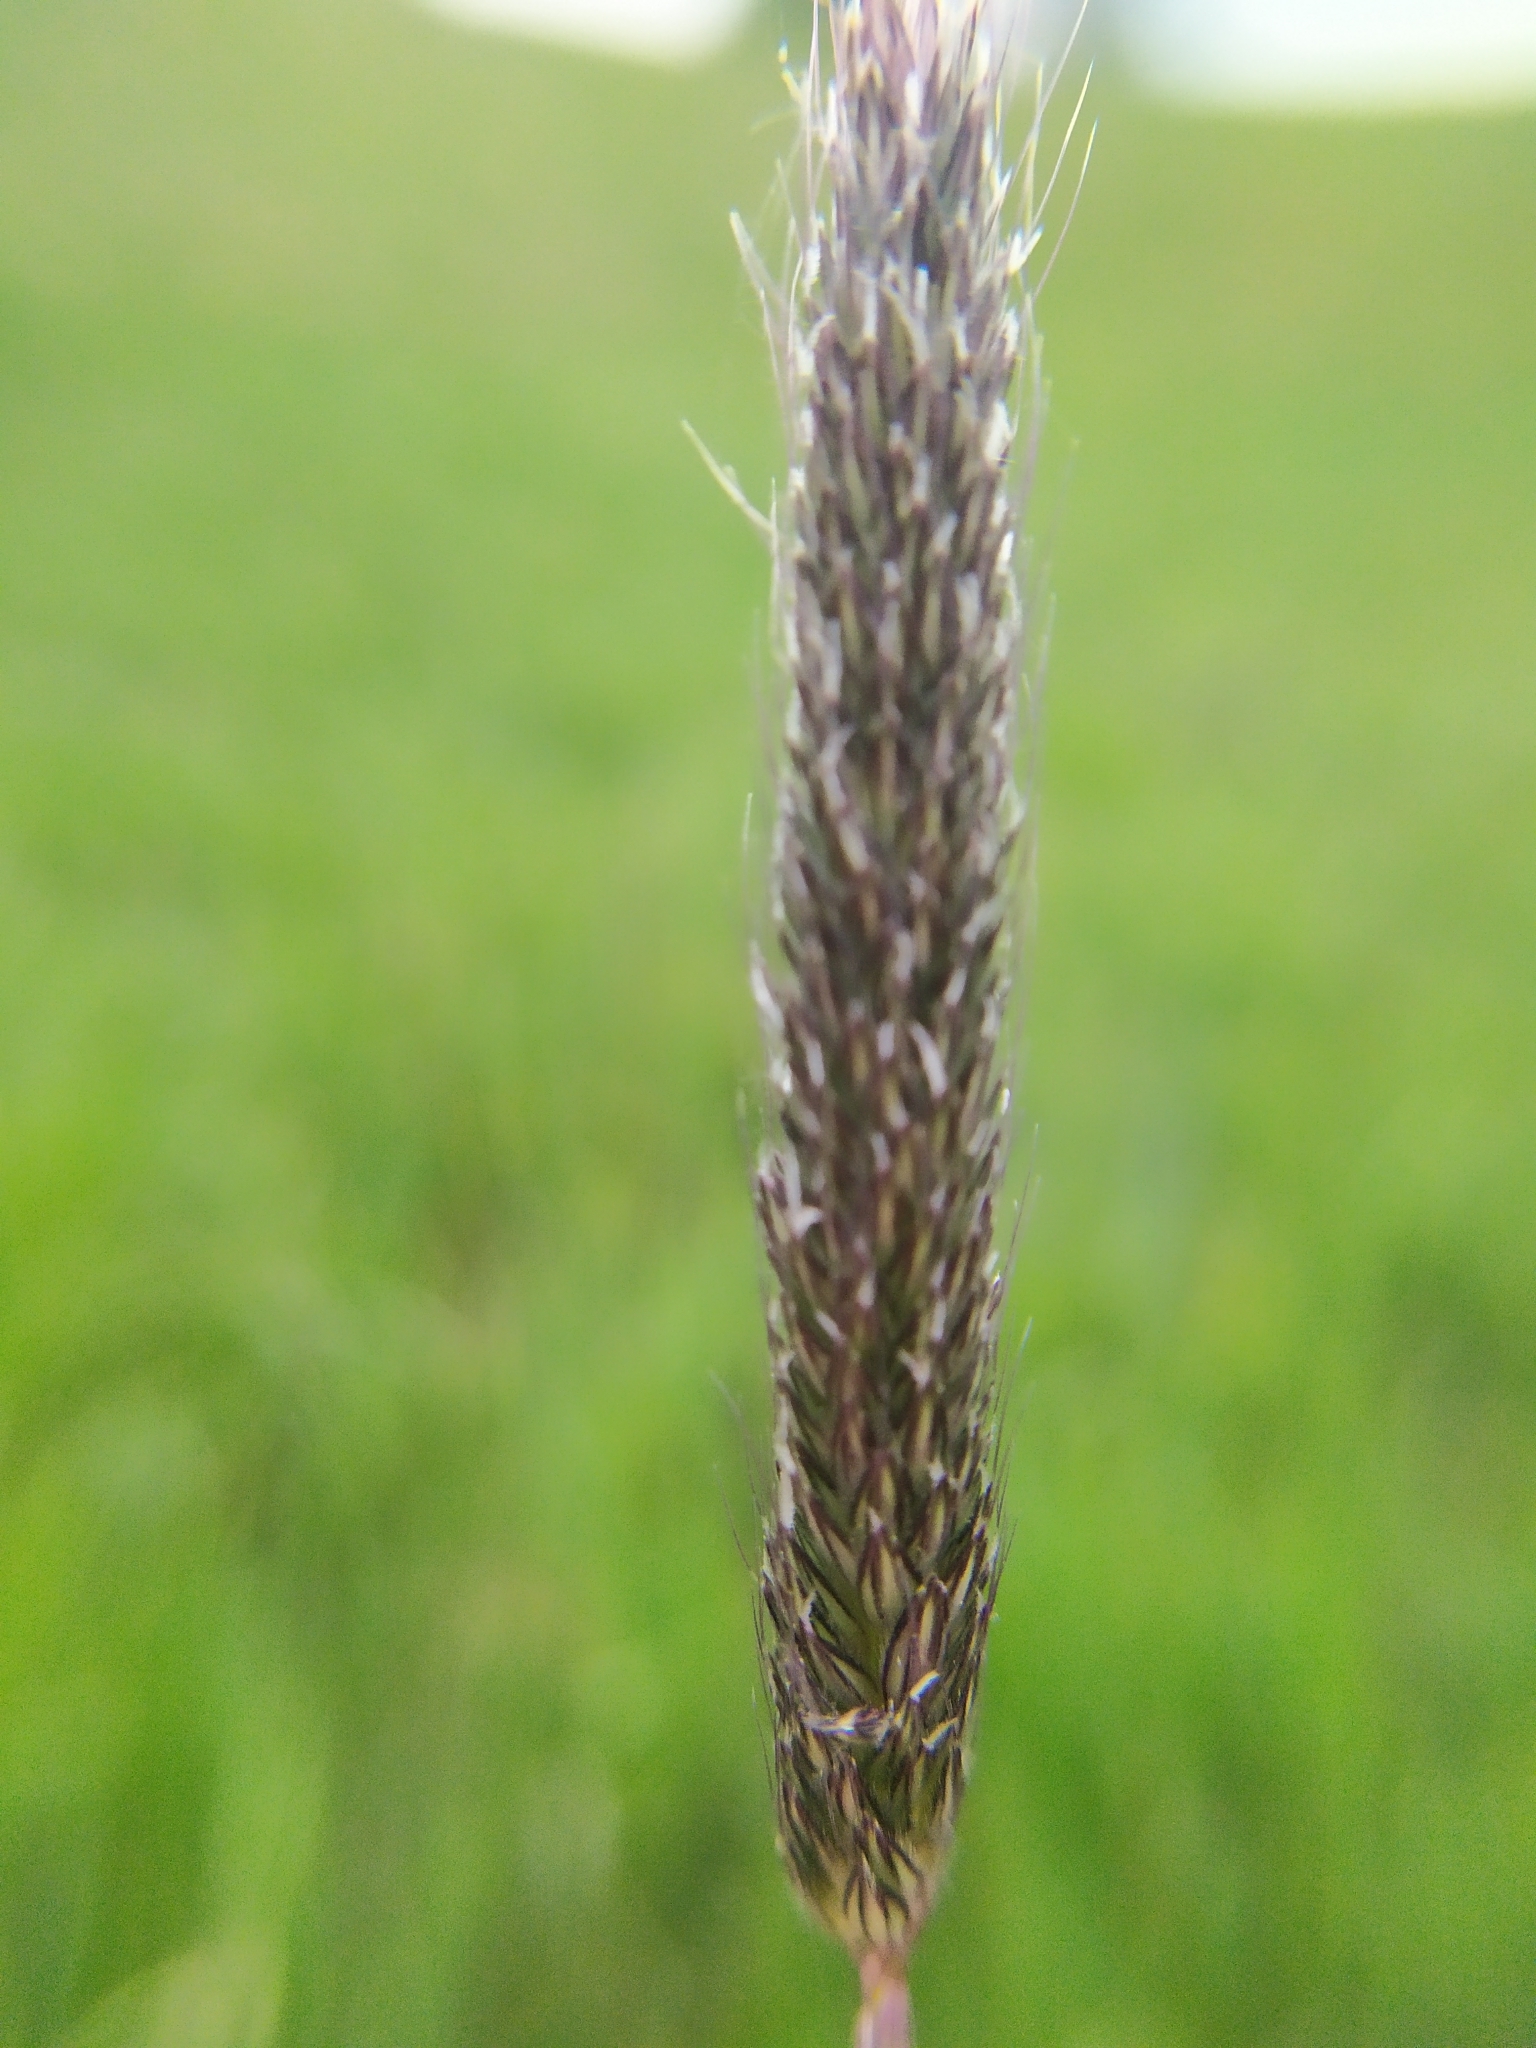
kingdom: Plantae
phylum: Tracheophyta
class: Liliopsida
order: Poales
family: Poaceae
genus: Alopecurus
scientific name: Alopecurus pratensis
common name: Meadow foxtail
